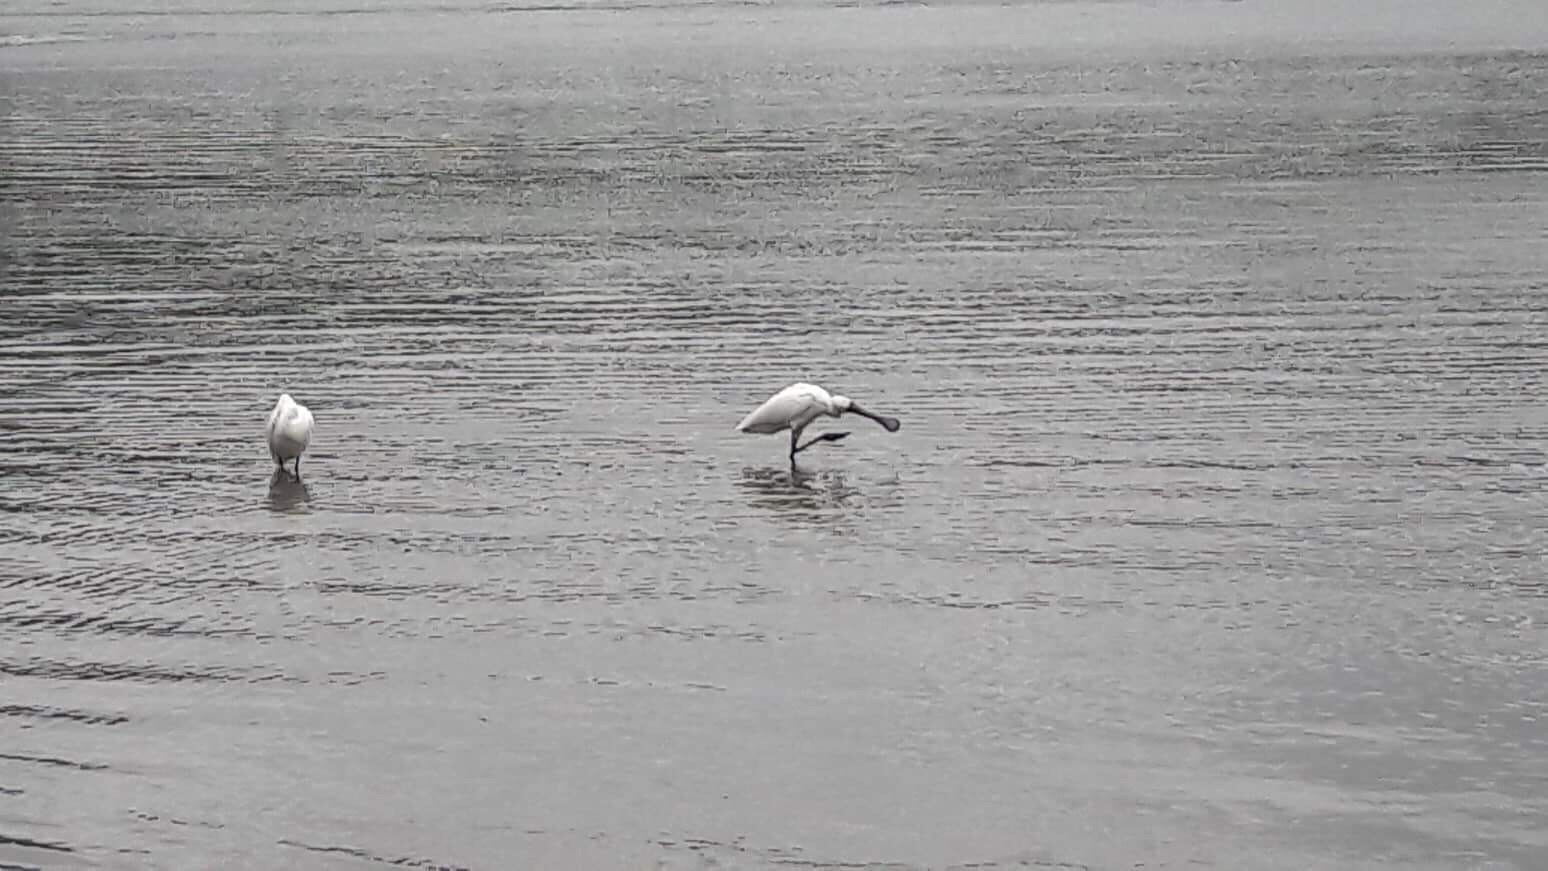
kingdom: Animalia
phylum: Chordata
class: Aves
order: Pelecaniformes
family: Threskiornithidae
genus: Platalea
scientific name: Platalea regia
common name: Royal spoonbill
